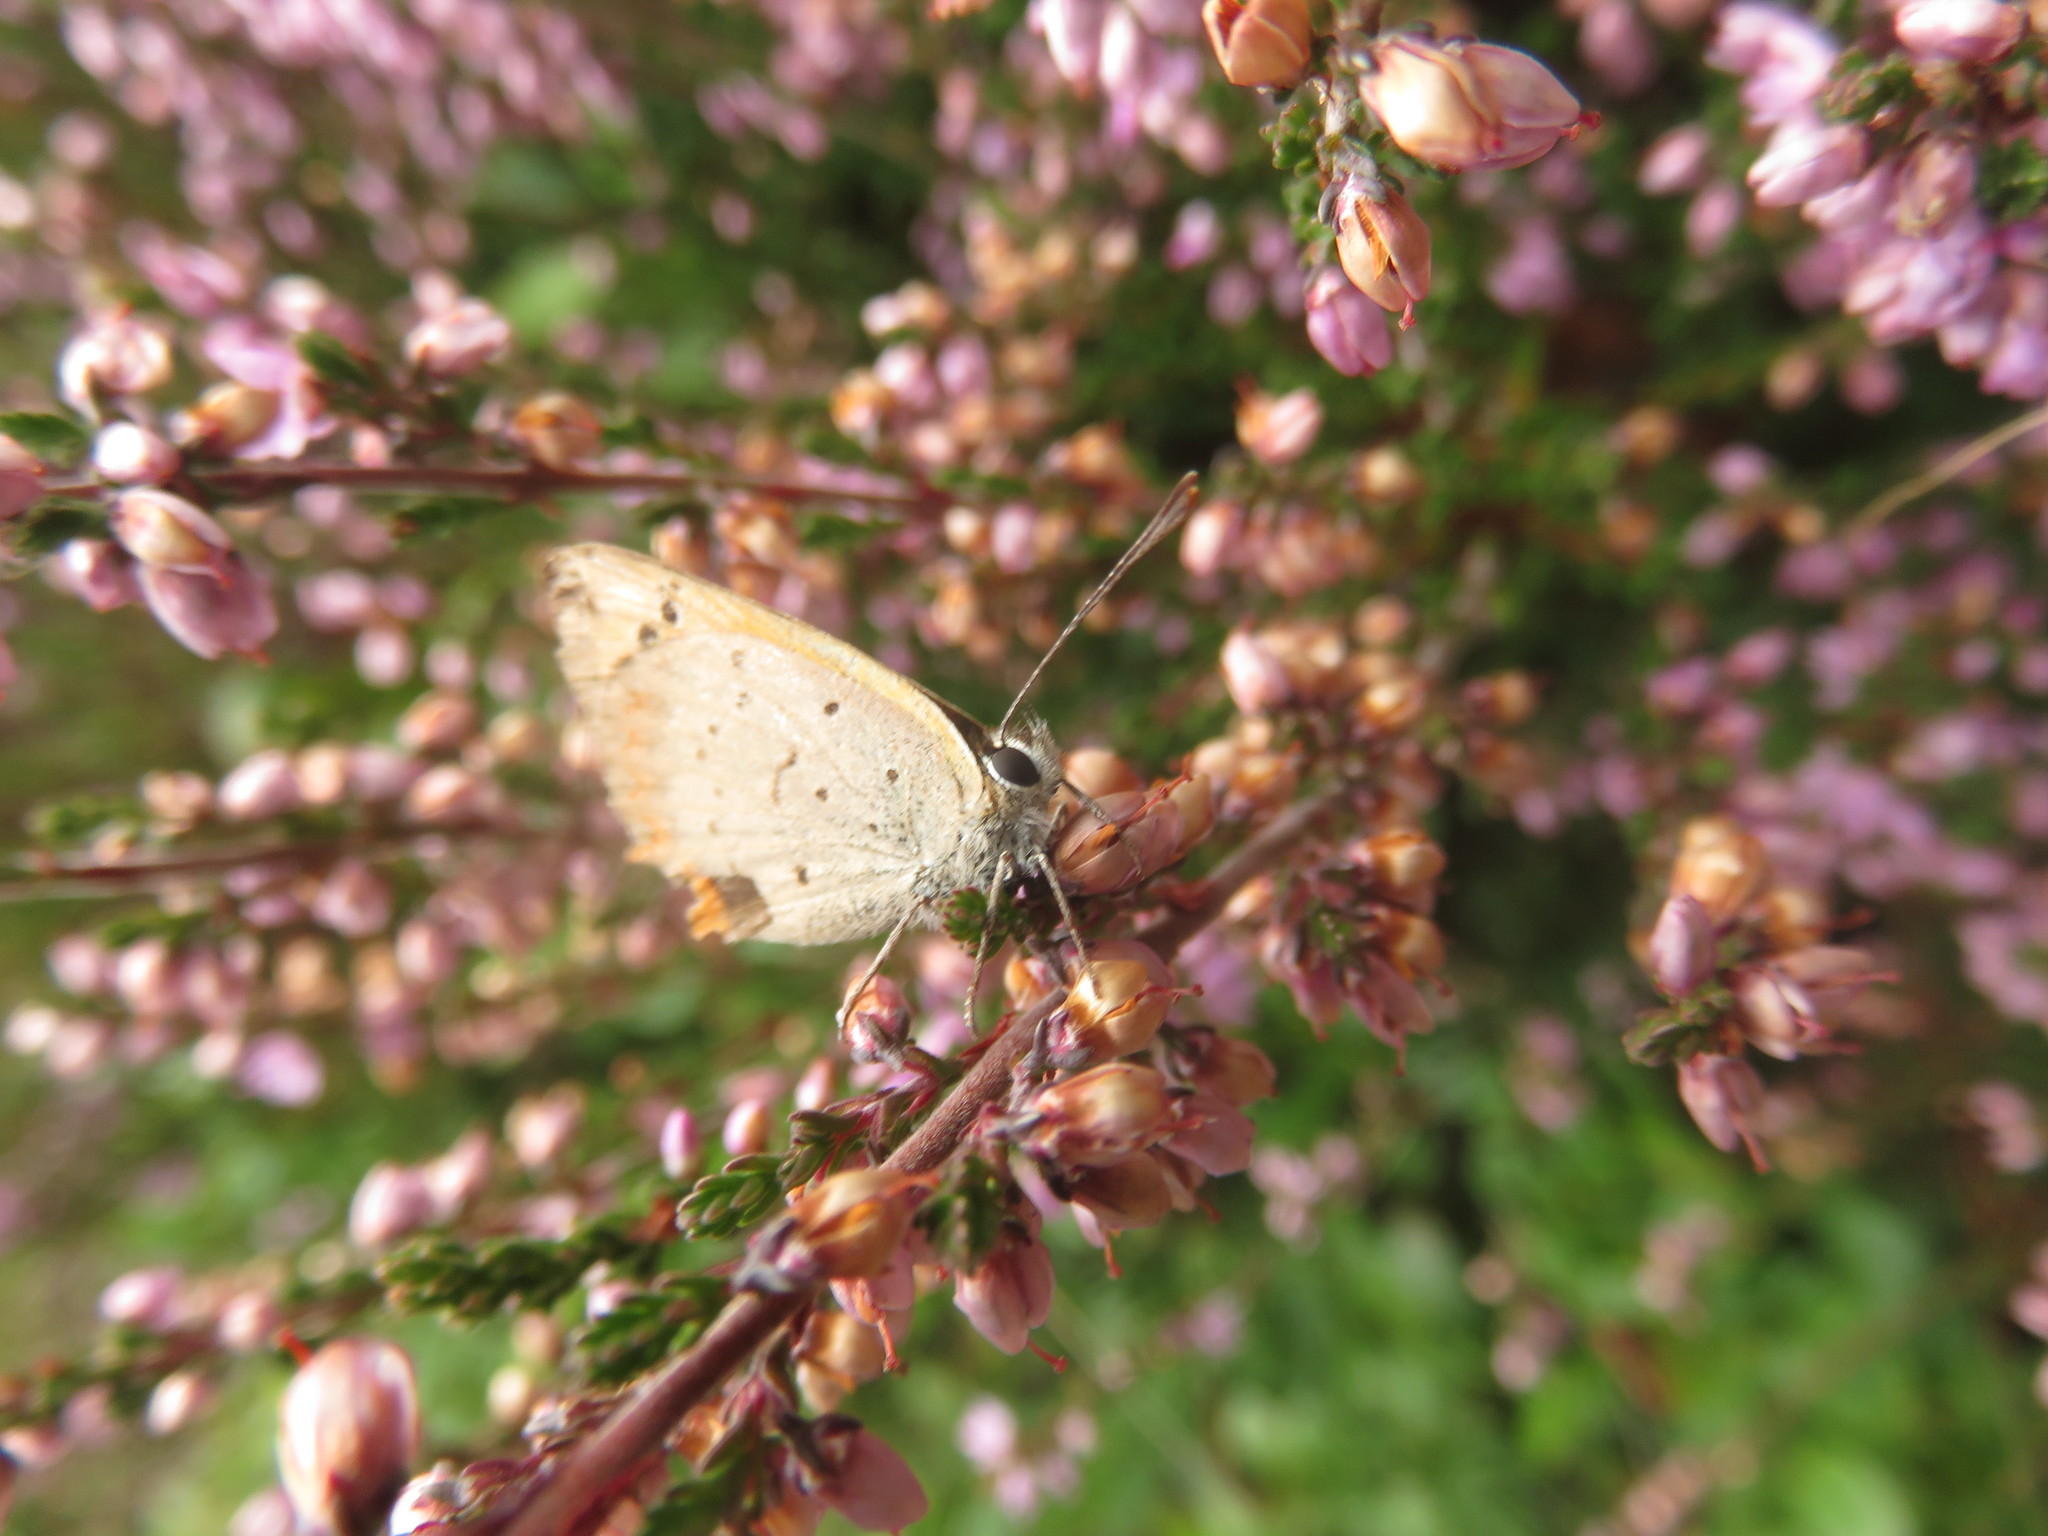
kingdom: Animalia
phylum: Arthropoda
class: Insecta
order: Lepidoptera
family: Lycaenidae
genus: Lycaena
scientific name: Lycaena phlaeas
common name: Small copper
